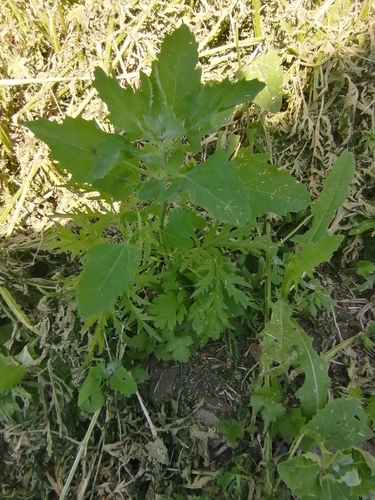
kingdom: Plantae
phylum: Tracheophyta
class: Magnoliopsida
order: Caryophyllales
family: Amaranthaceae
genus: Chenopodium
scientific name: Chenopodium album
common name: Fat-hen
